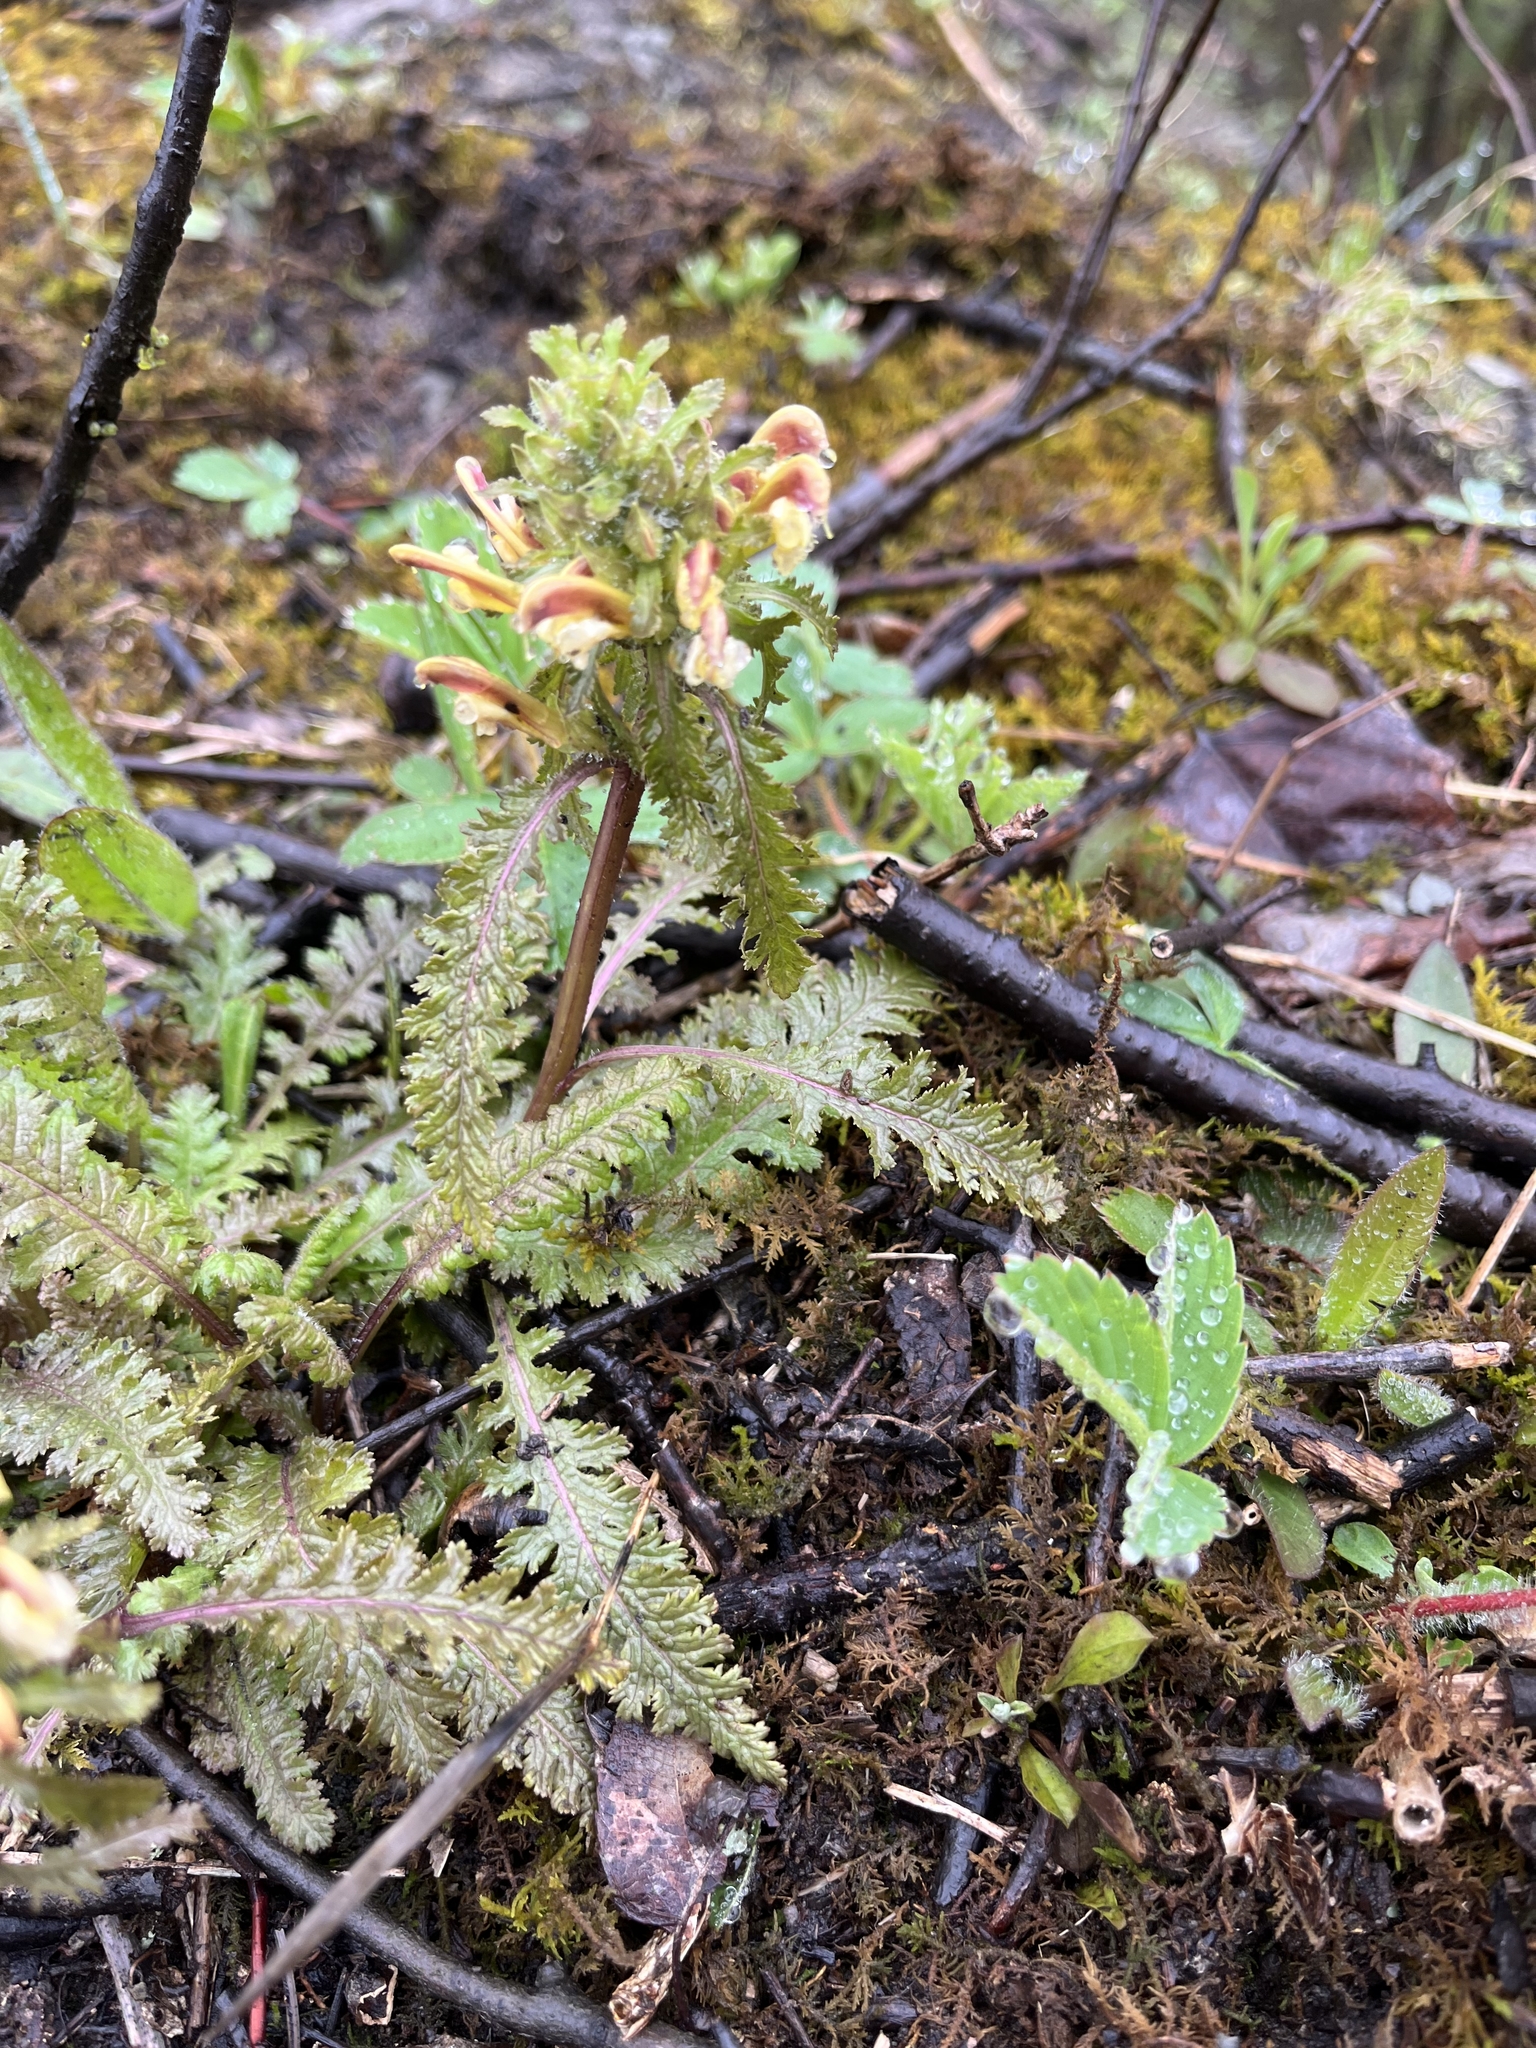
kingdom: Plantae
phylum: Tracheophyta
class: Magnoliopsida
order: Lamiales
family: Orobanchaceae
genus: Pedicularis
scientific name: Pedicularis canadensis
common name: Early lousewort
